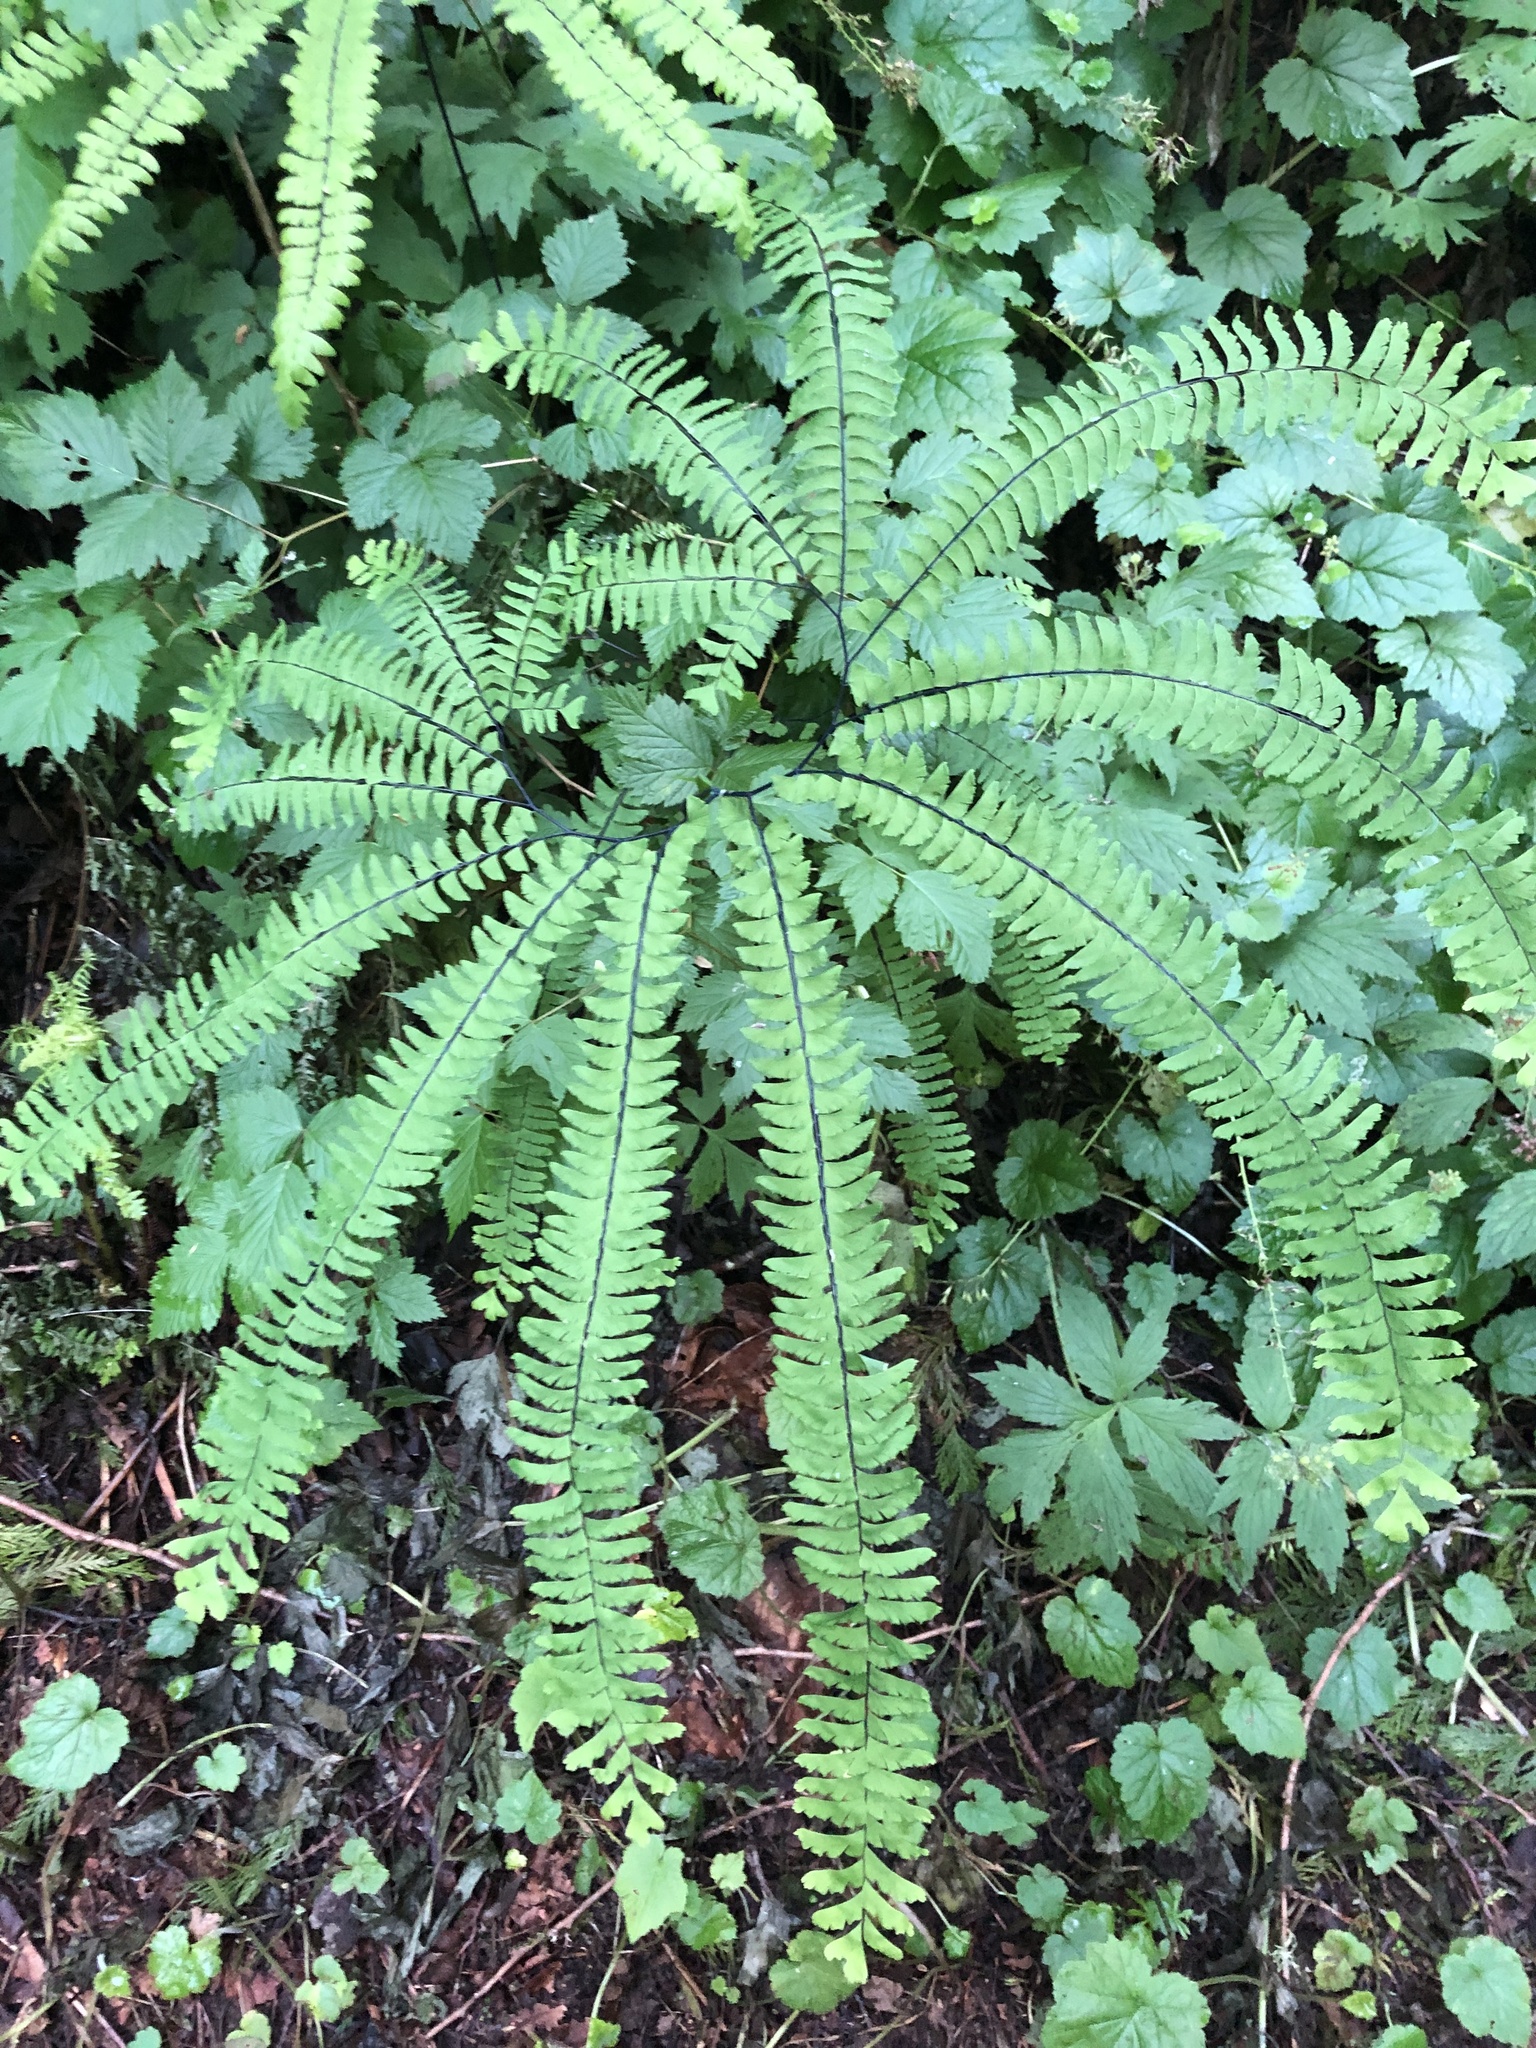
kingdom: Plantae
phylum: Tracheophyta
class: Polypodiopsida
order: Polypodiales
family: Pteridaceae
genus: Adiantum
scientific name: Adiantum aleuticum
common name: Aleutian maidenhair fern
